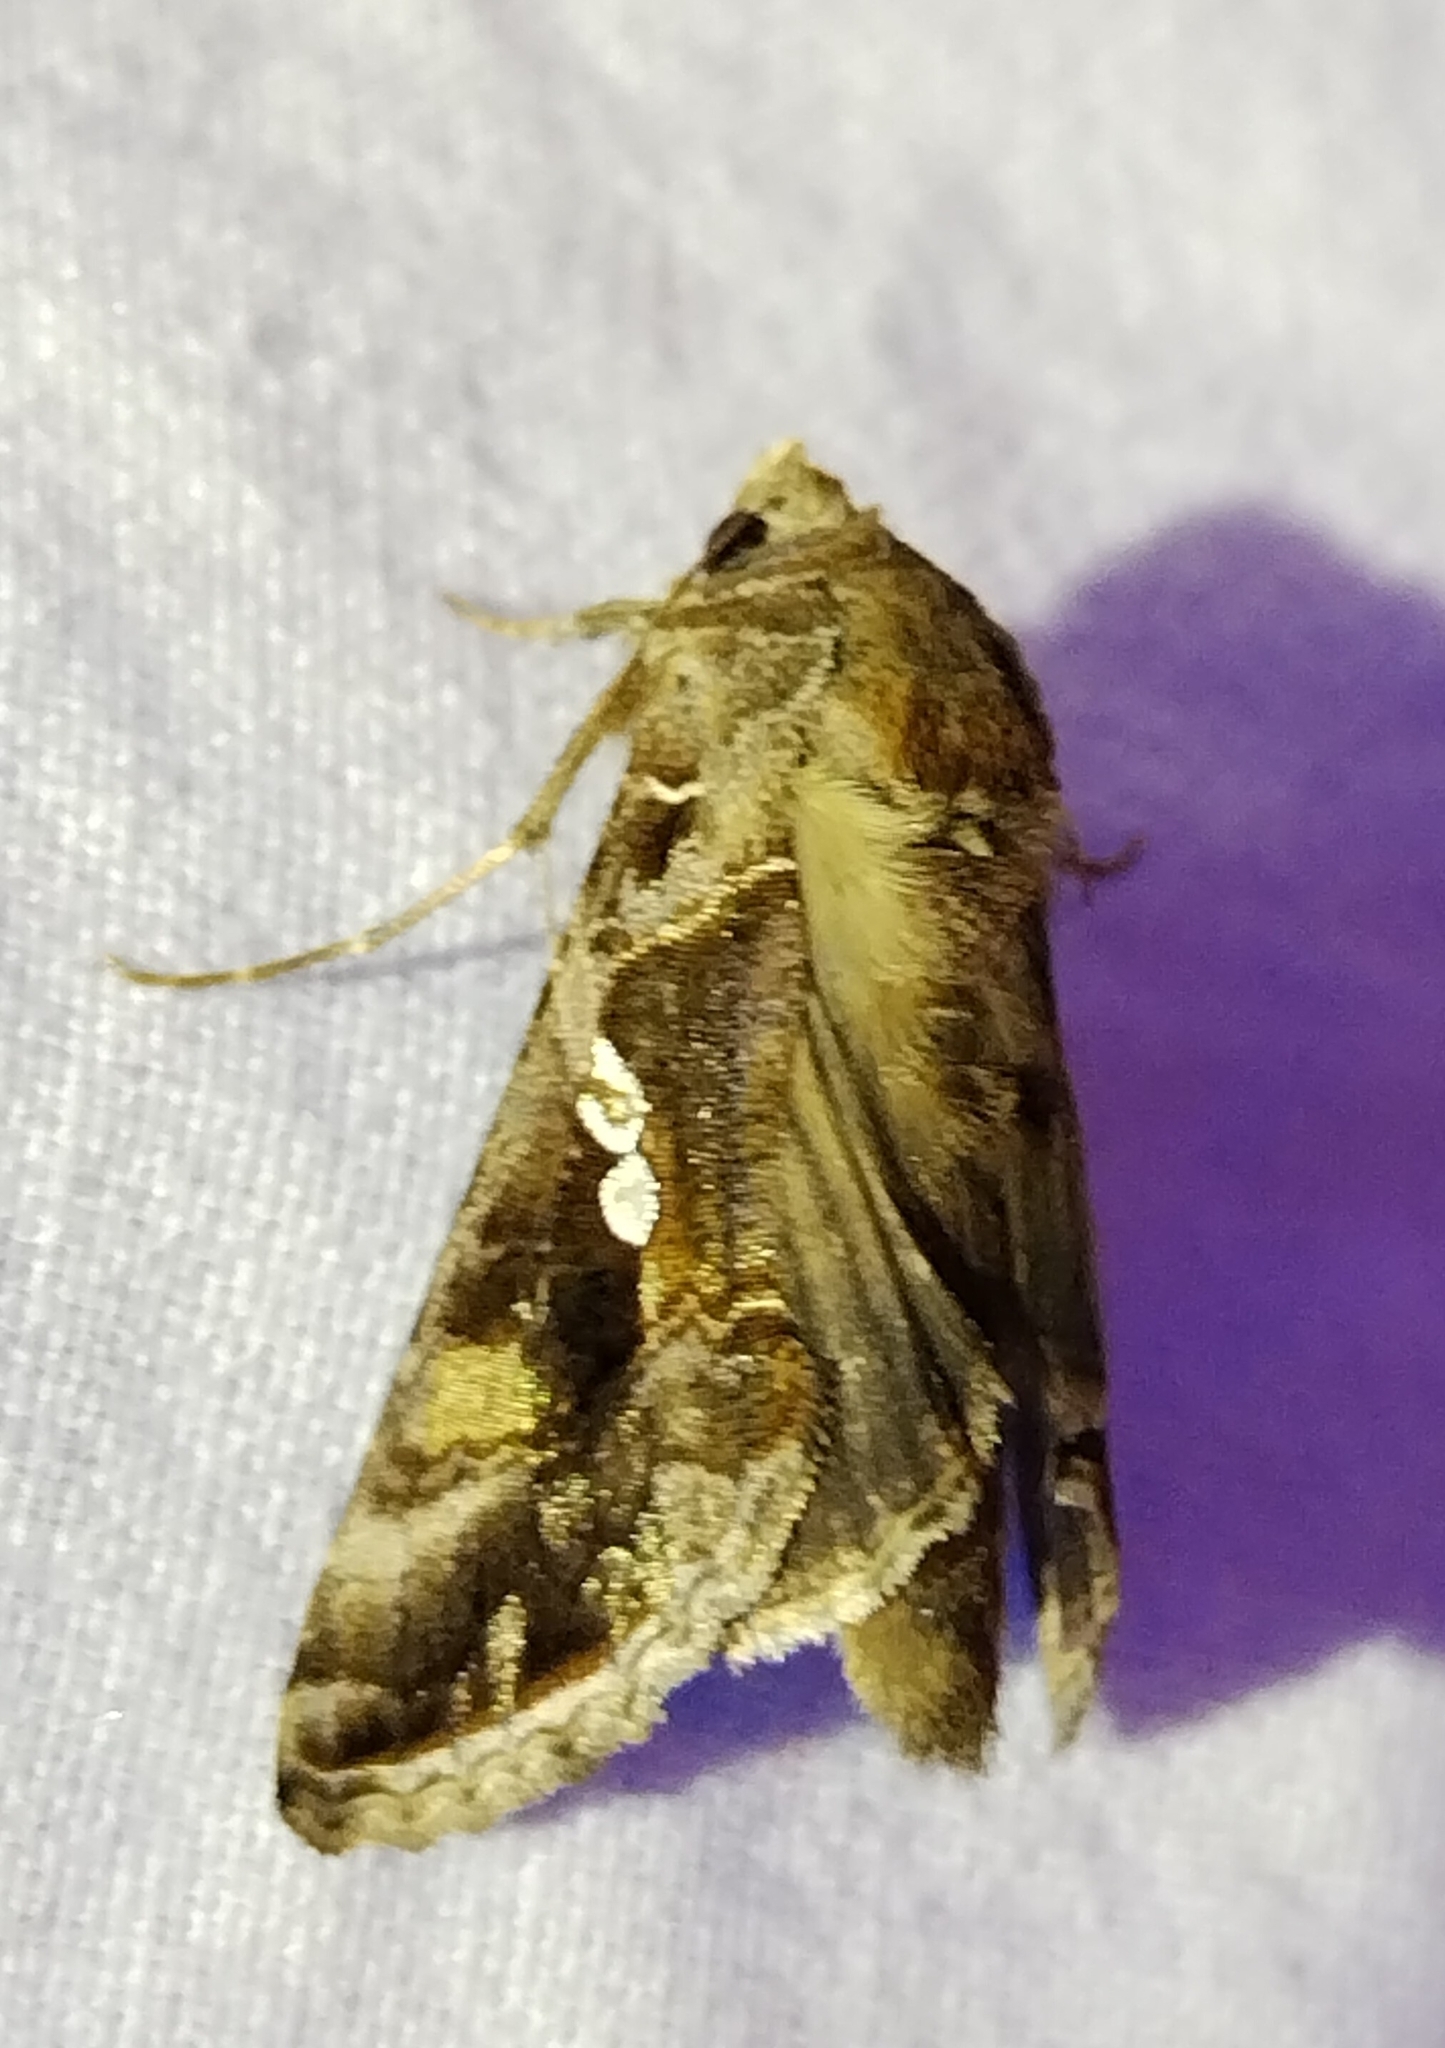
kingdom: Animalia
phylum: Arthropoda
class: Insecta
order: Lepidoptera
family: Noctuidae
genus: Chrysodeixis
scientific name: Chrysodeixis includens
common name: Cutworm moth
